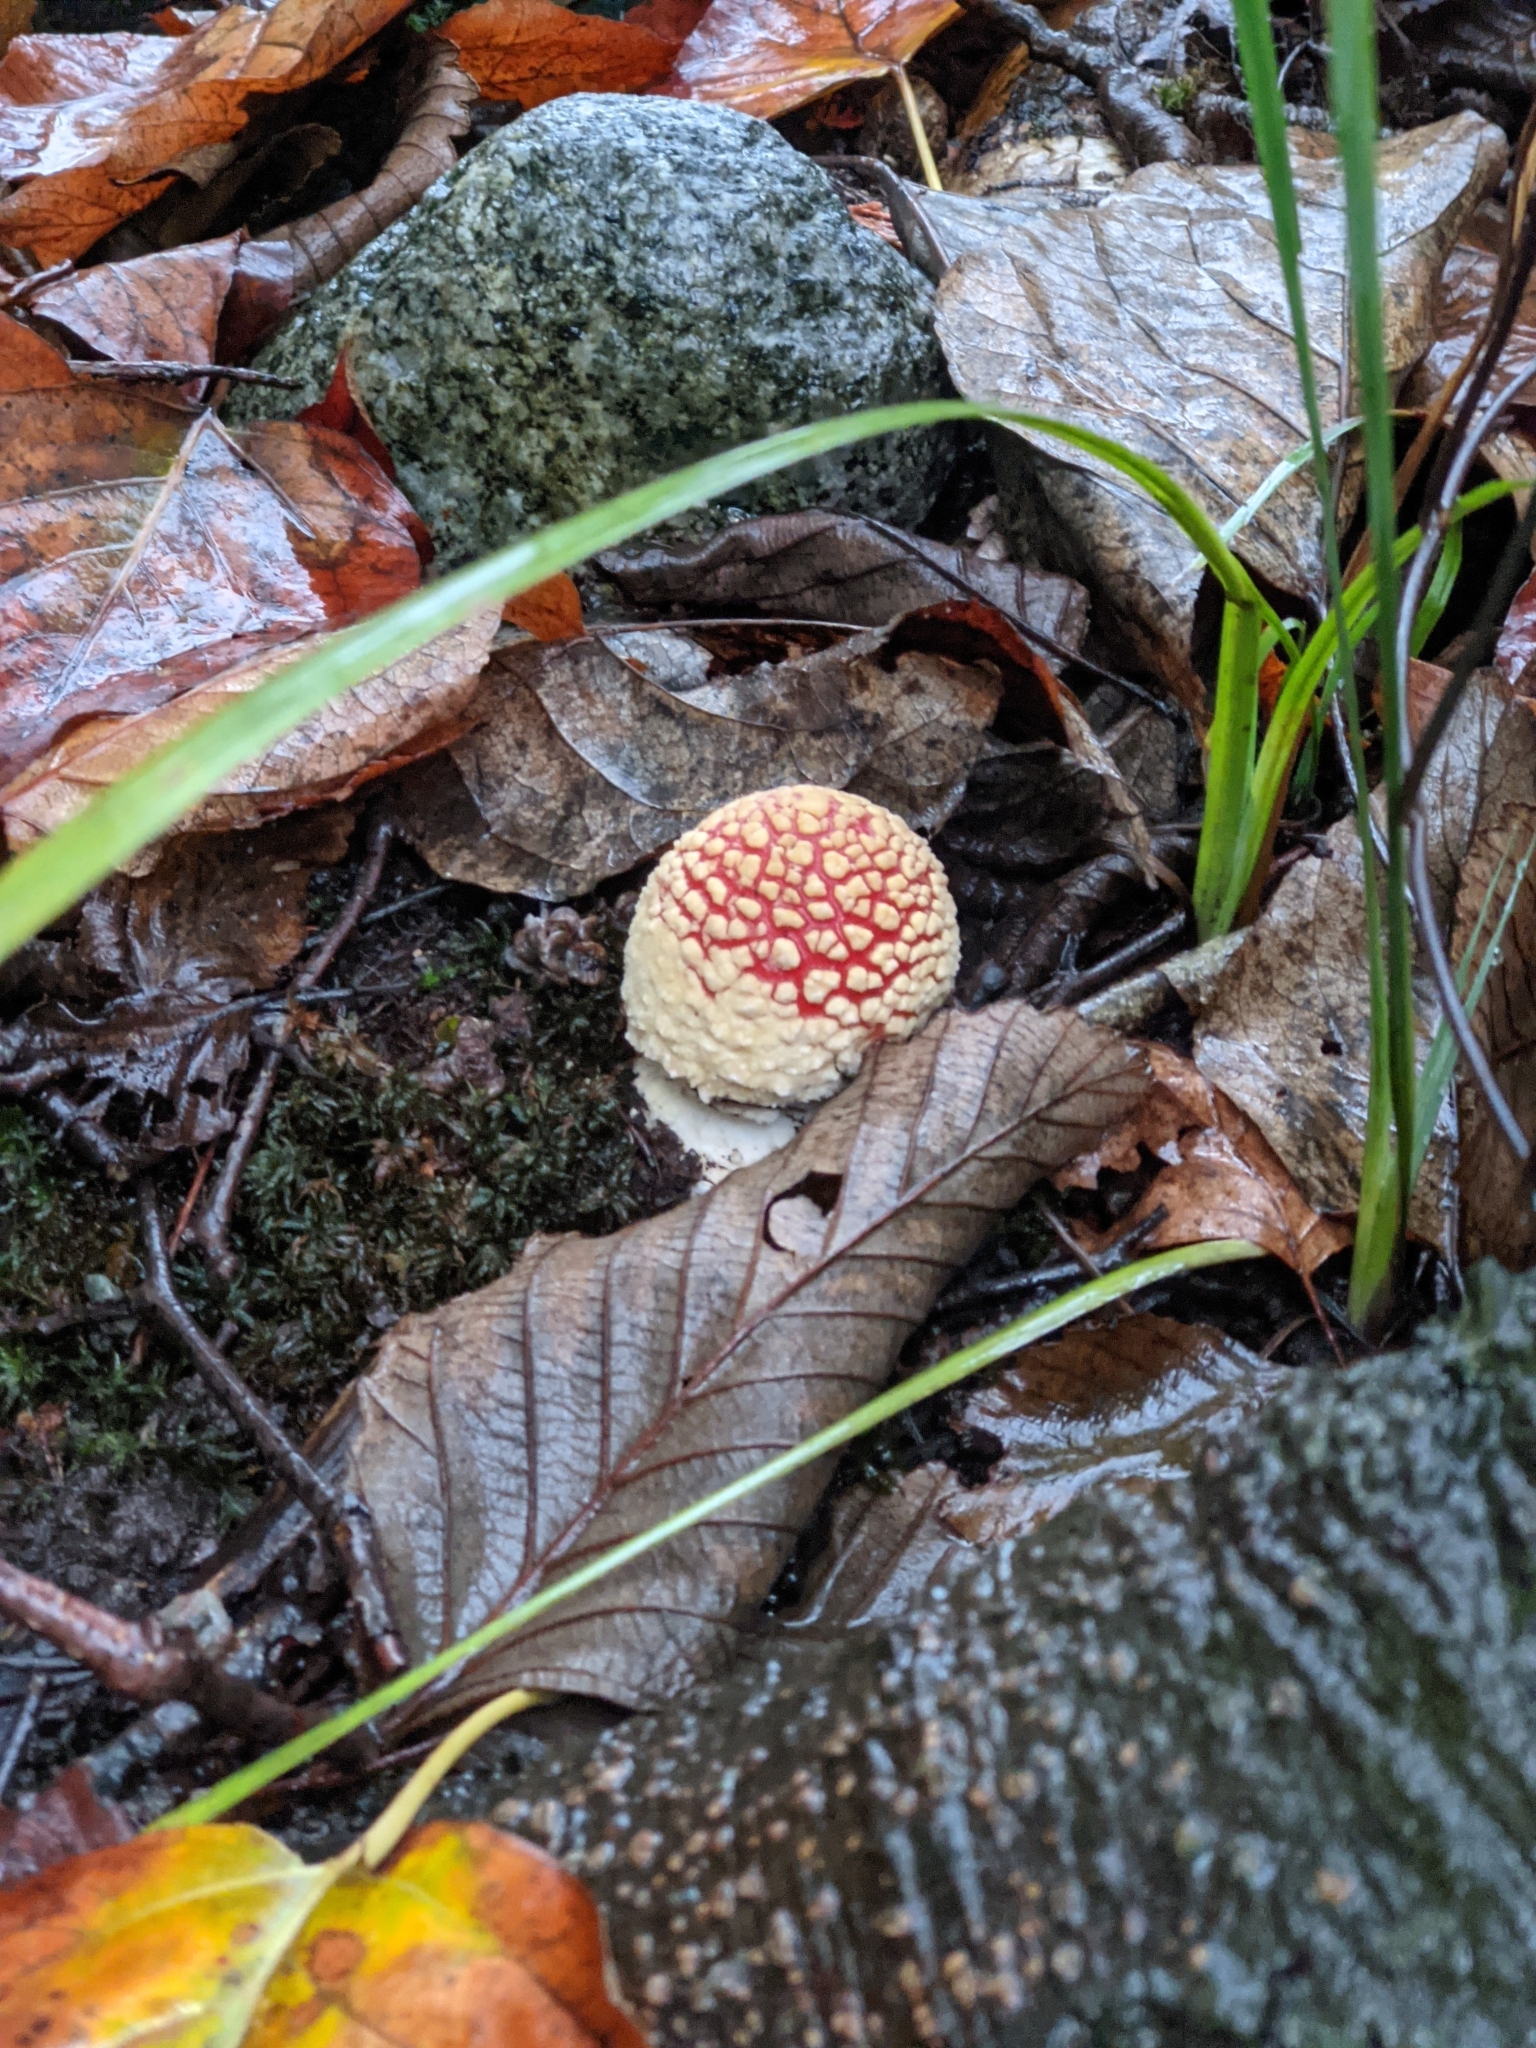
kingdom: Fungi
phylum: Basidiomycota
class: Agaricomycetes
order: Agaricales
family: Amanitaceae
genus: Amanita
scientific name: Amanita muscaria
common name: Fly agaric
